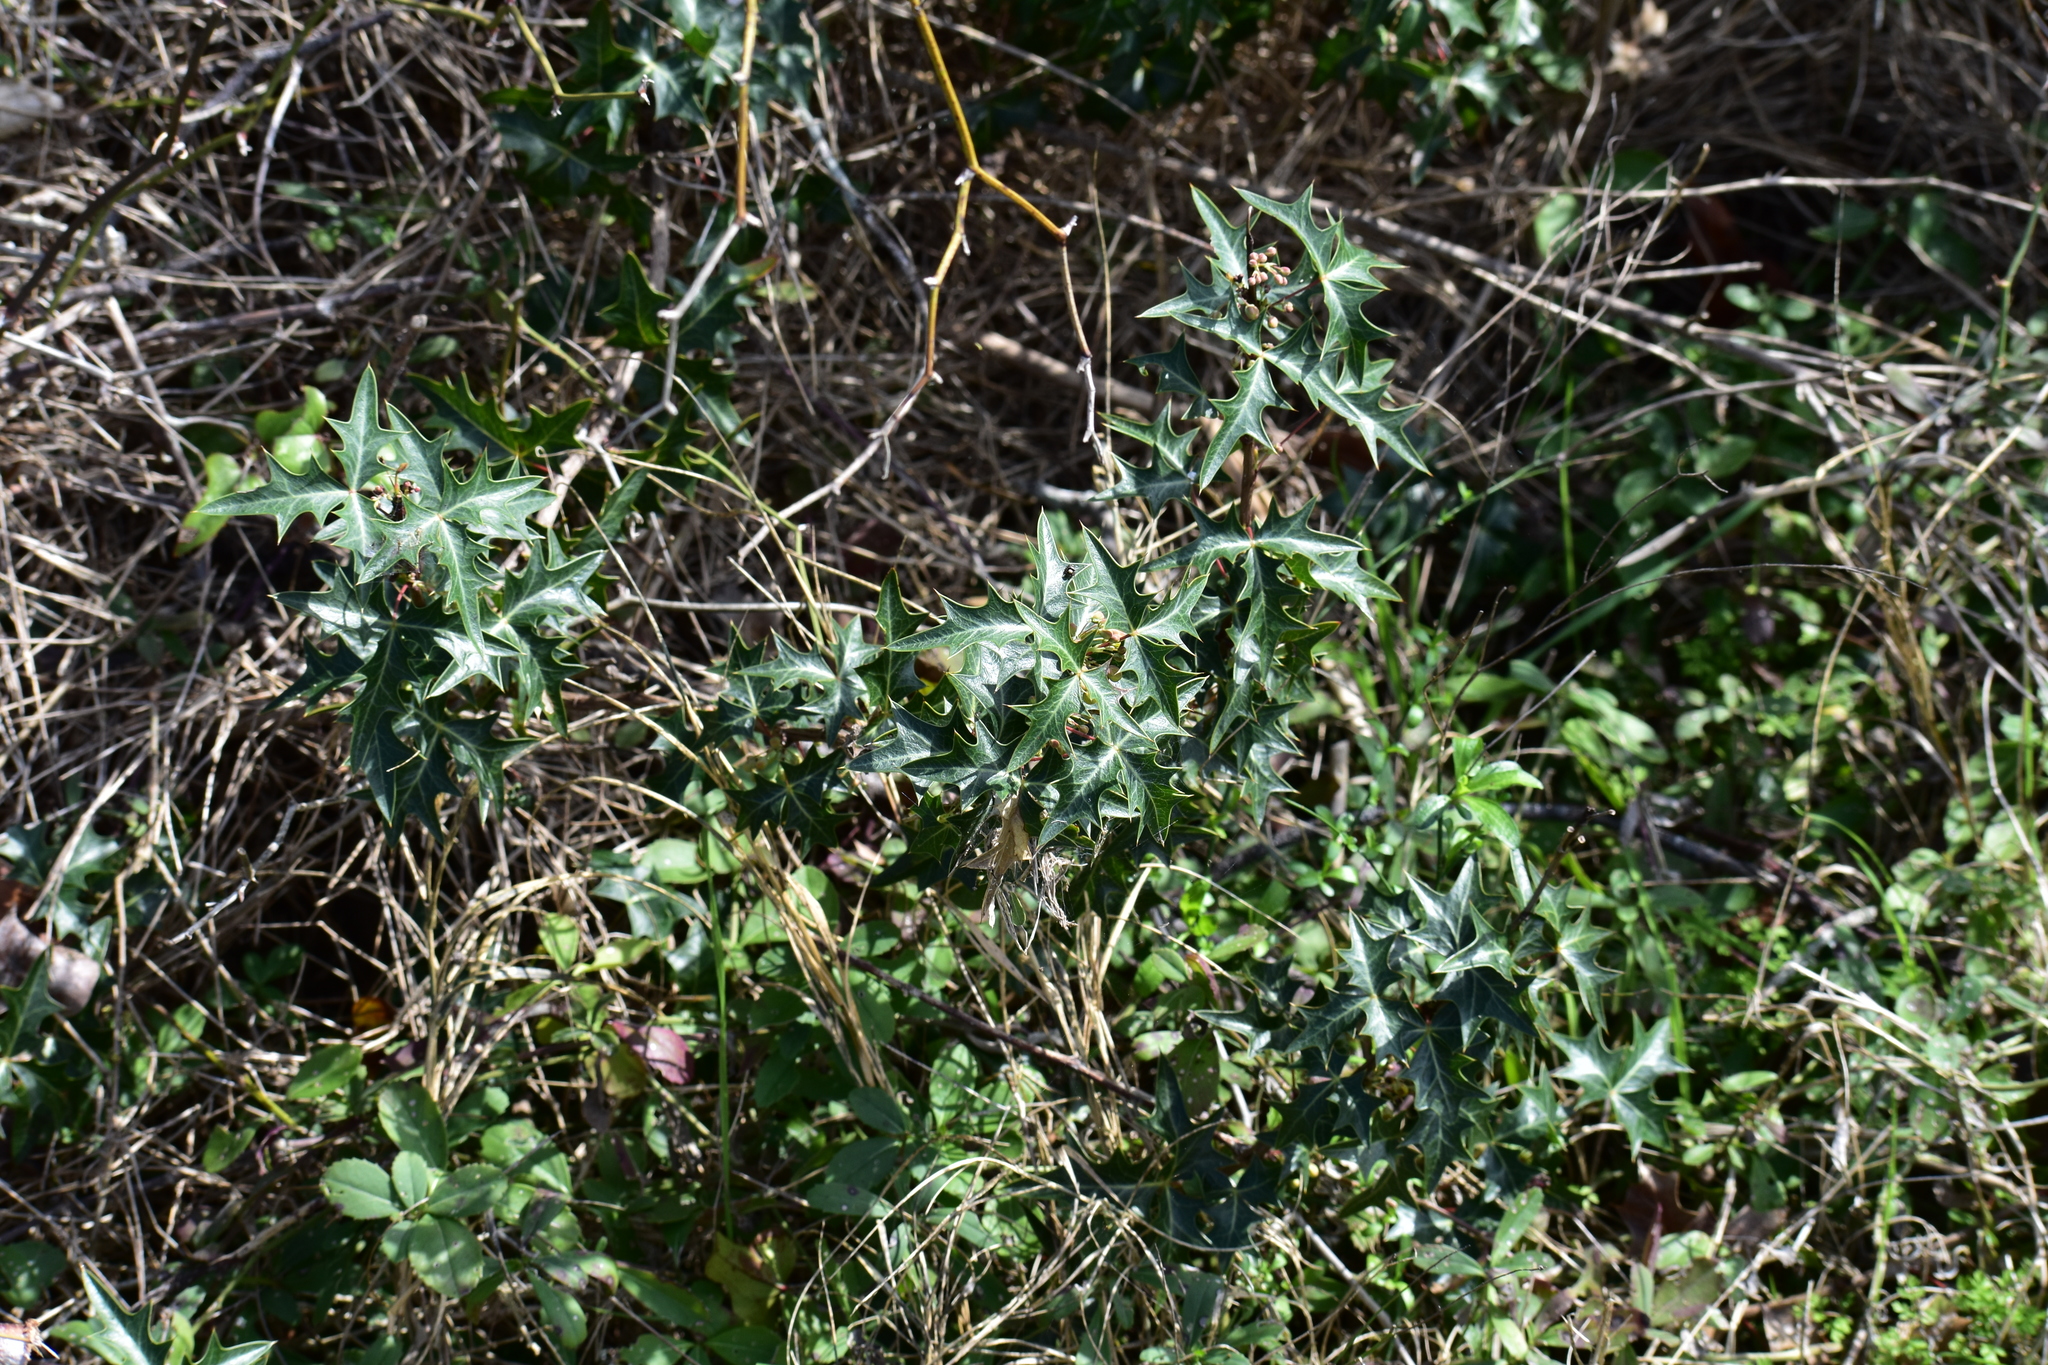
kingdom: Plantae
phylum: Tracheophyta
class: Magnoliopsida
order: Ranunculales
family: Berberidaceae
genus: Alloberberis
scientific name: Alloberberis trifoliolata
